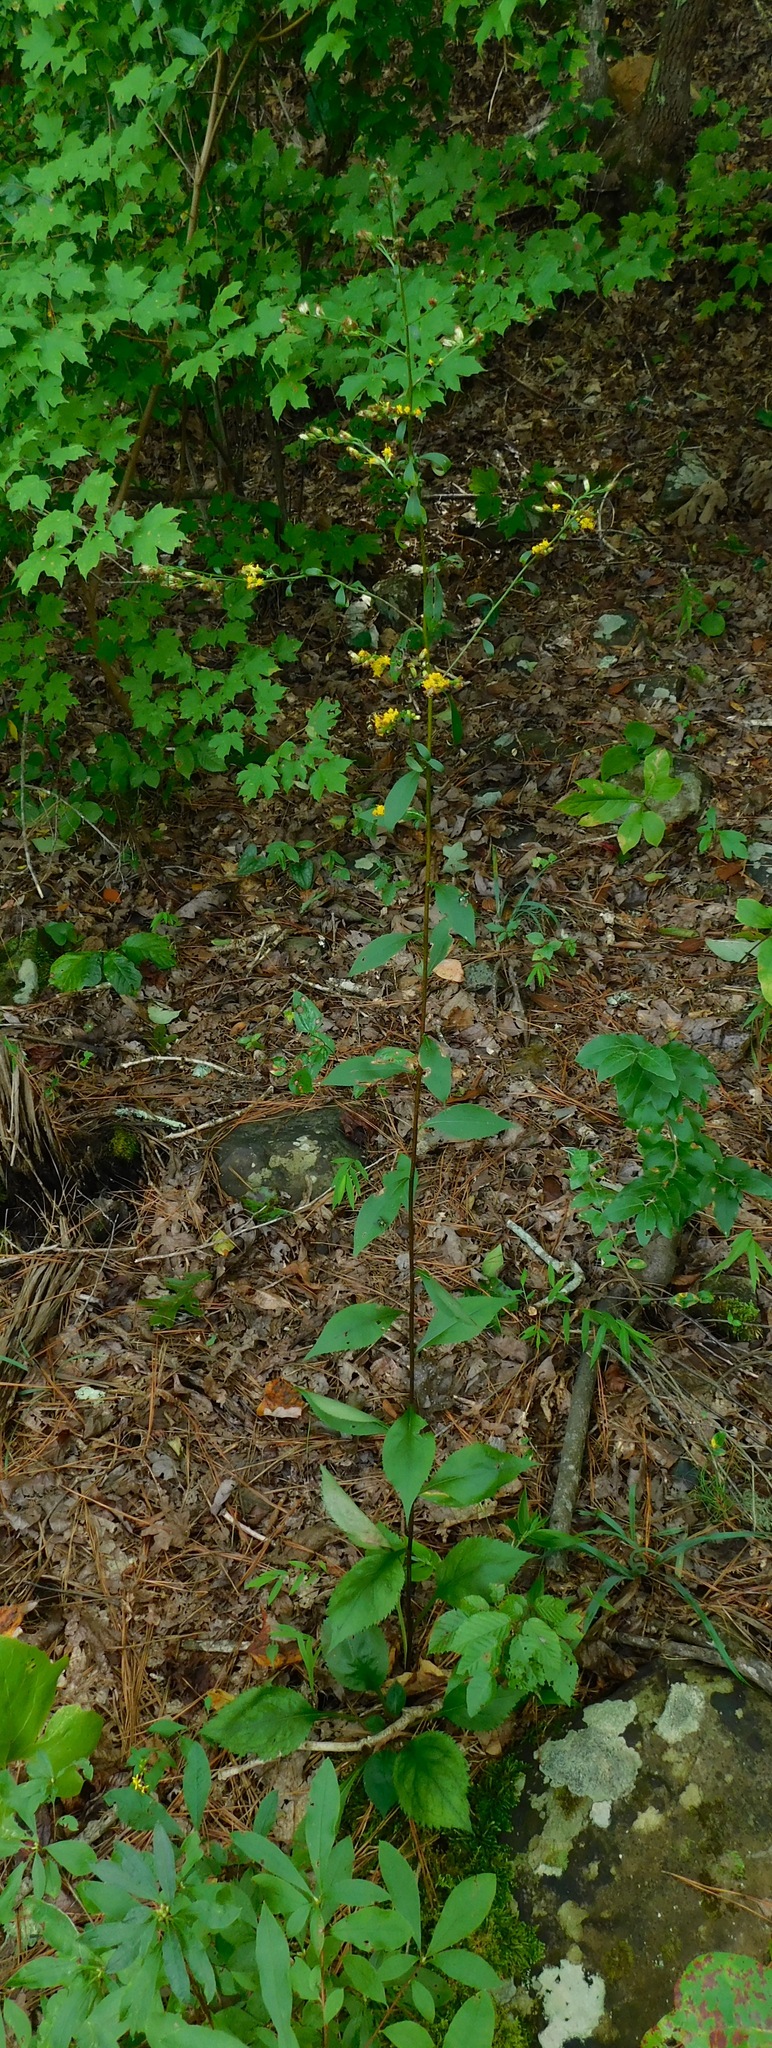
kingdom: Plantae
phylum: Tracheophyta
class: Magnoliopsida
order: Asterales
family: Asteraceae
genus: Solidago
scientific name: Solidago arguta
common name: Atlantic goldenrod
